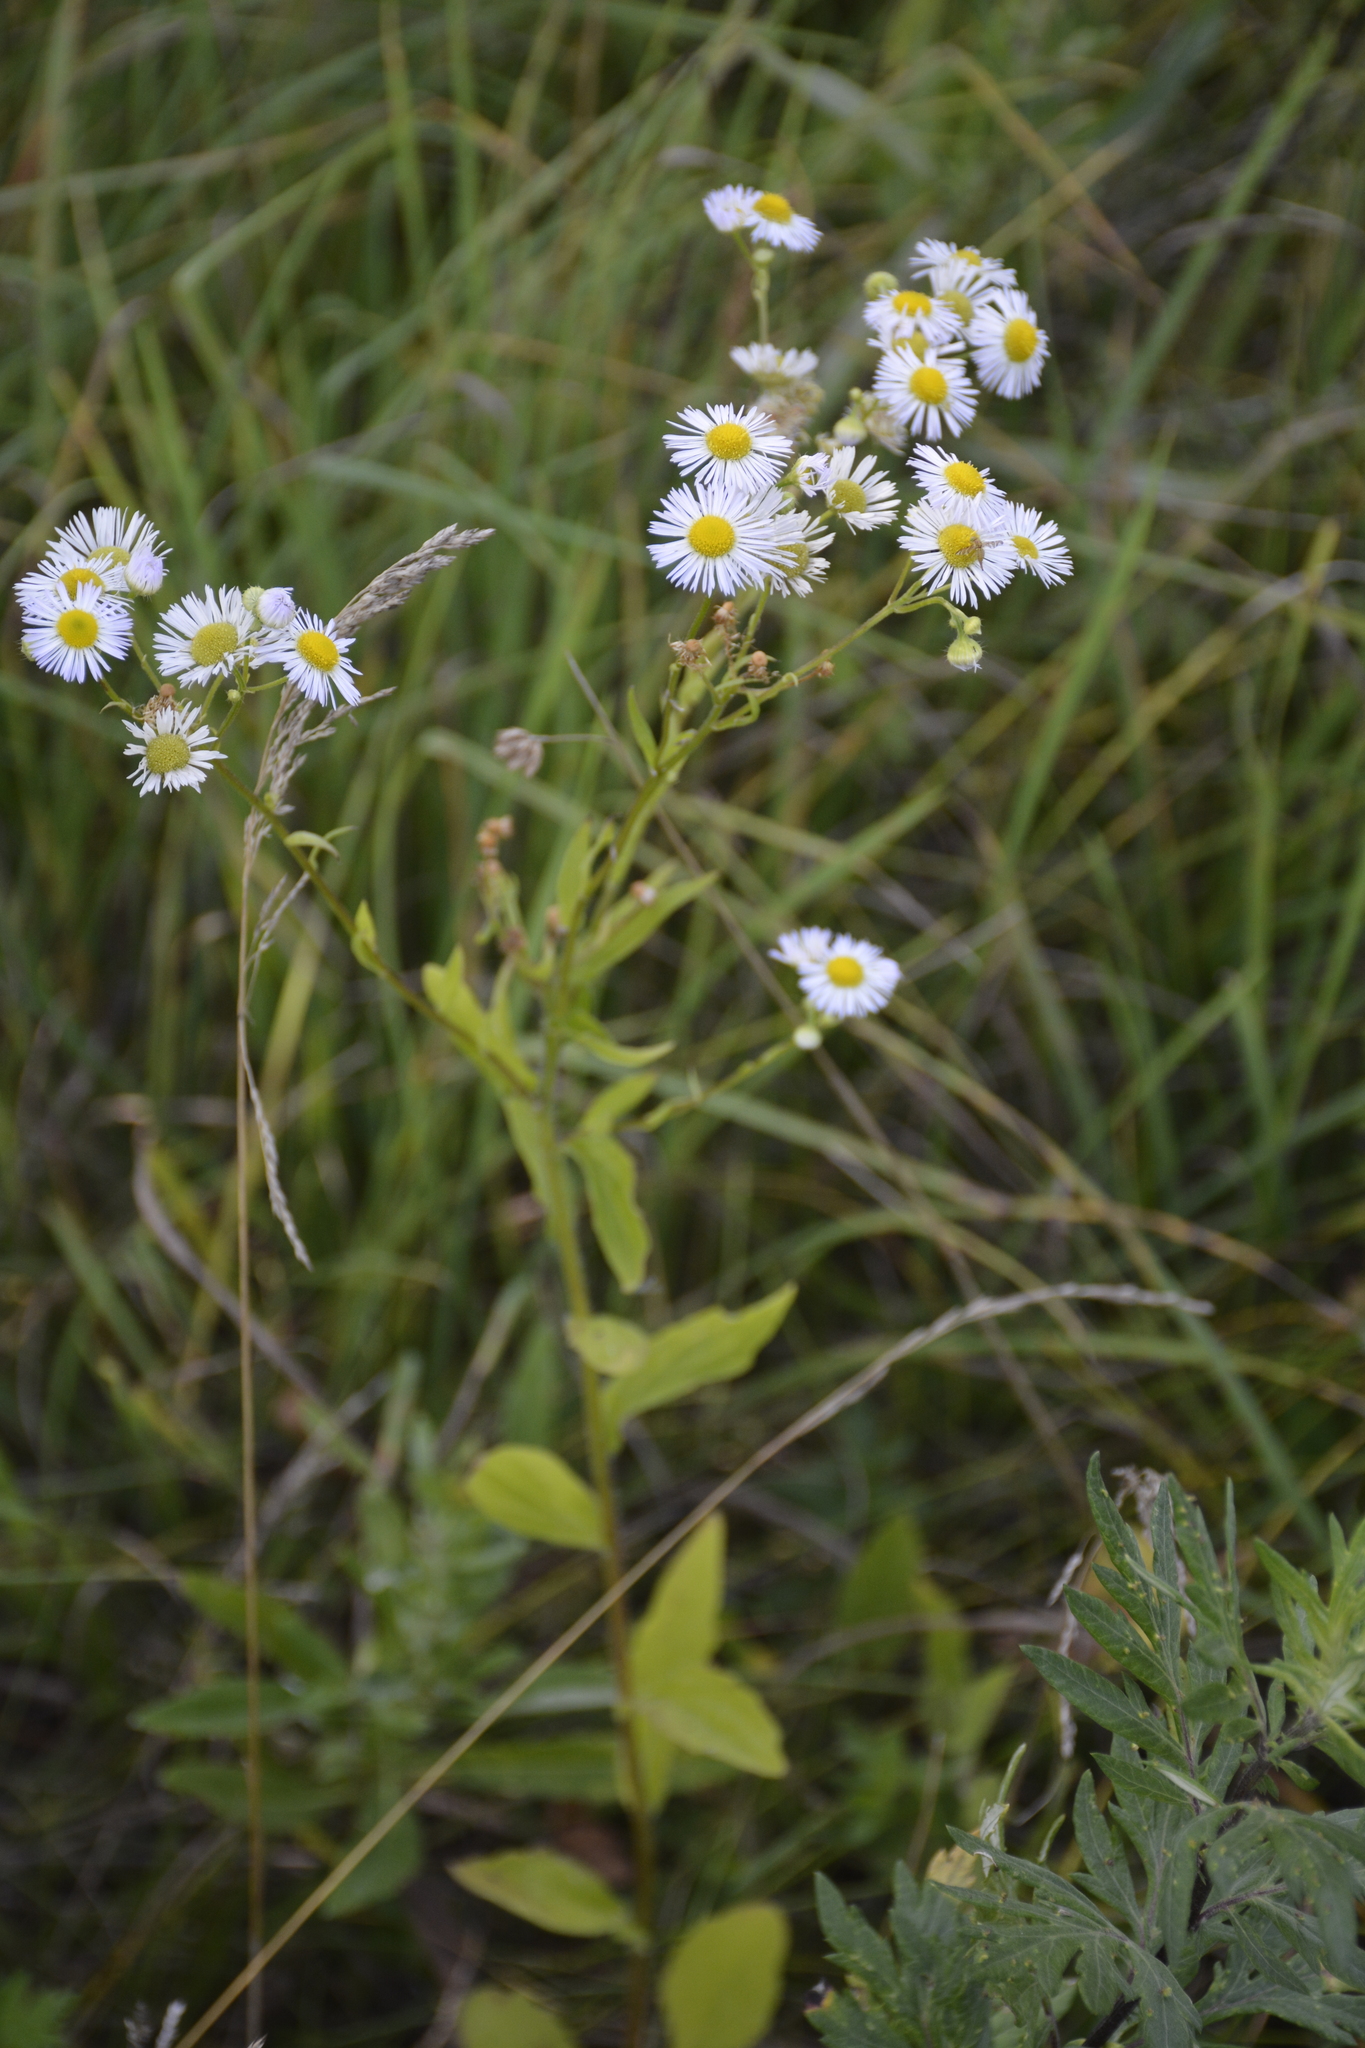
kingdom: Plantae
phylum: Tracheophyta
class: Magnoliopsida
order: Asterales
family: Asteraceae
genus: Erigeron
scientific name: Erigeron annuus
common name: Tall fleabane
